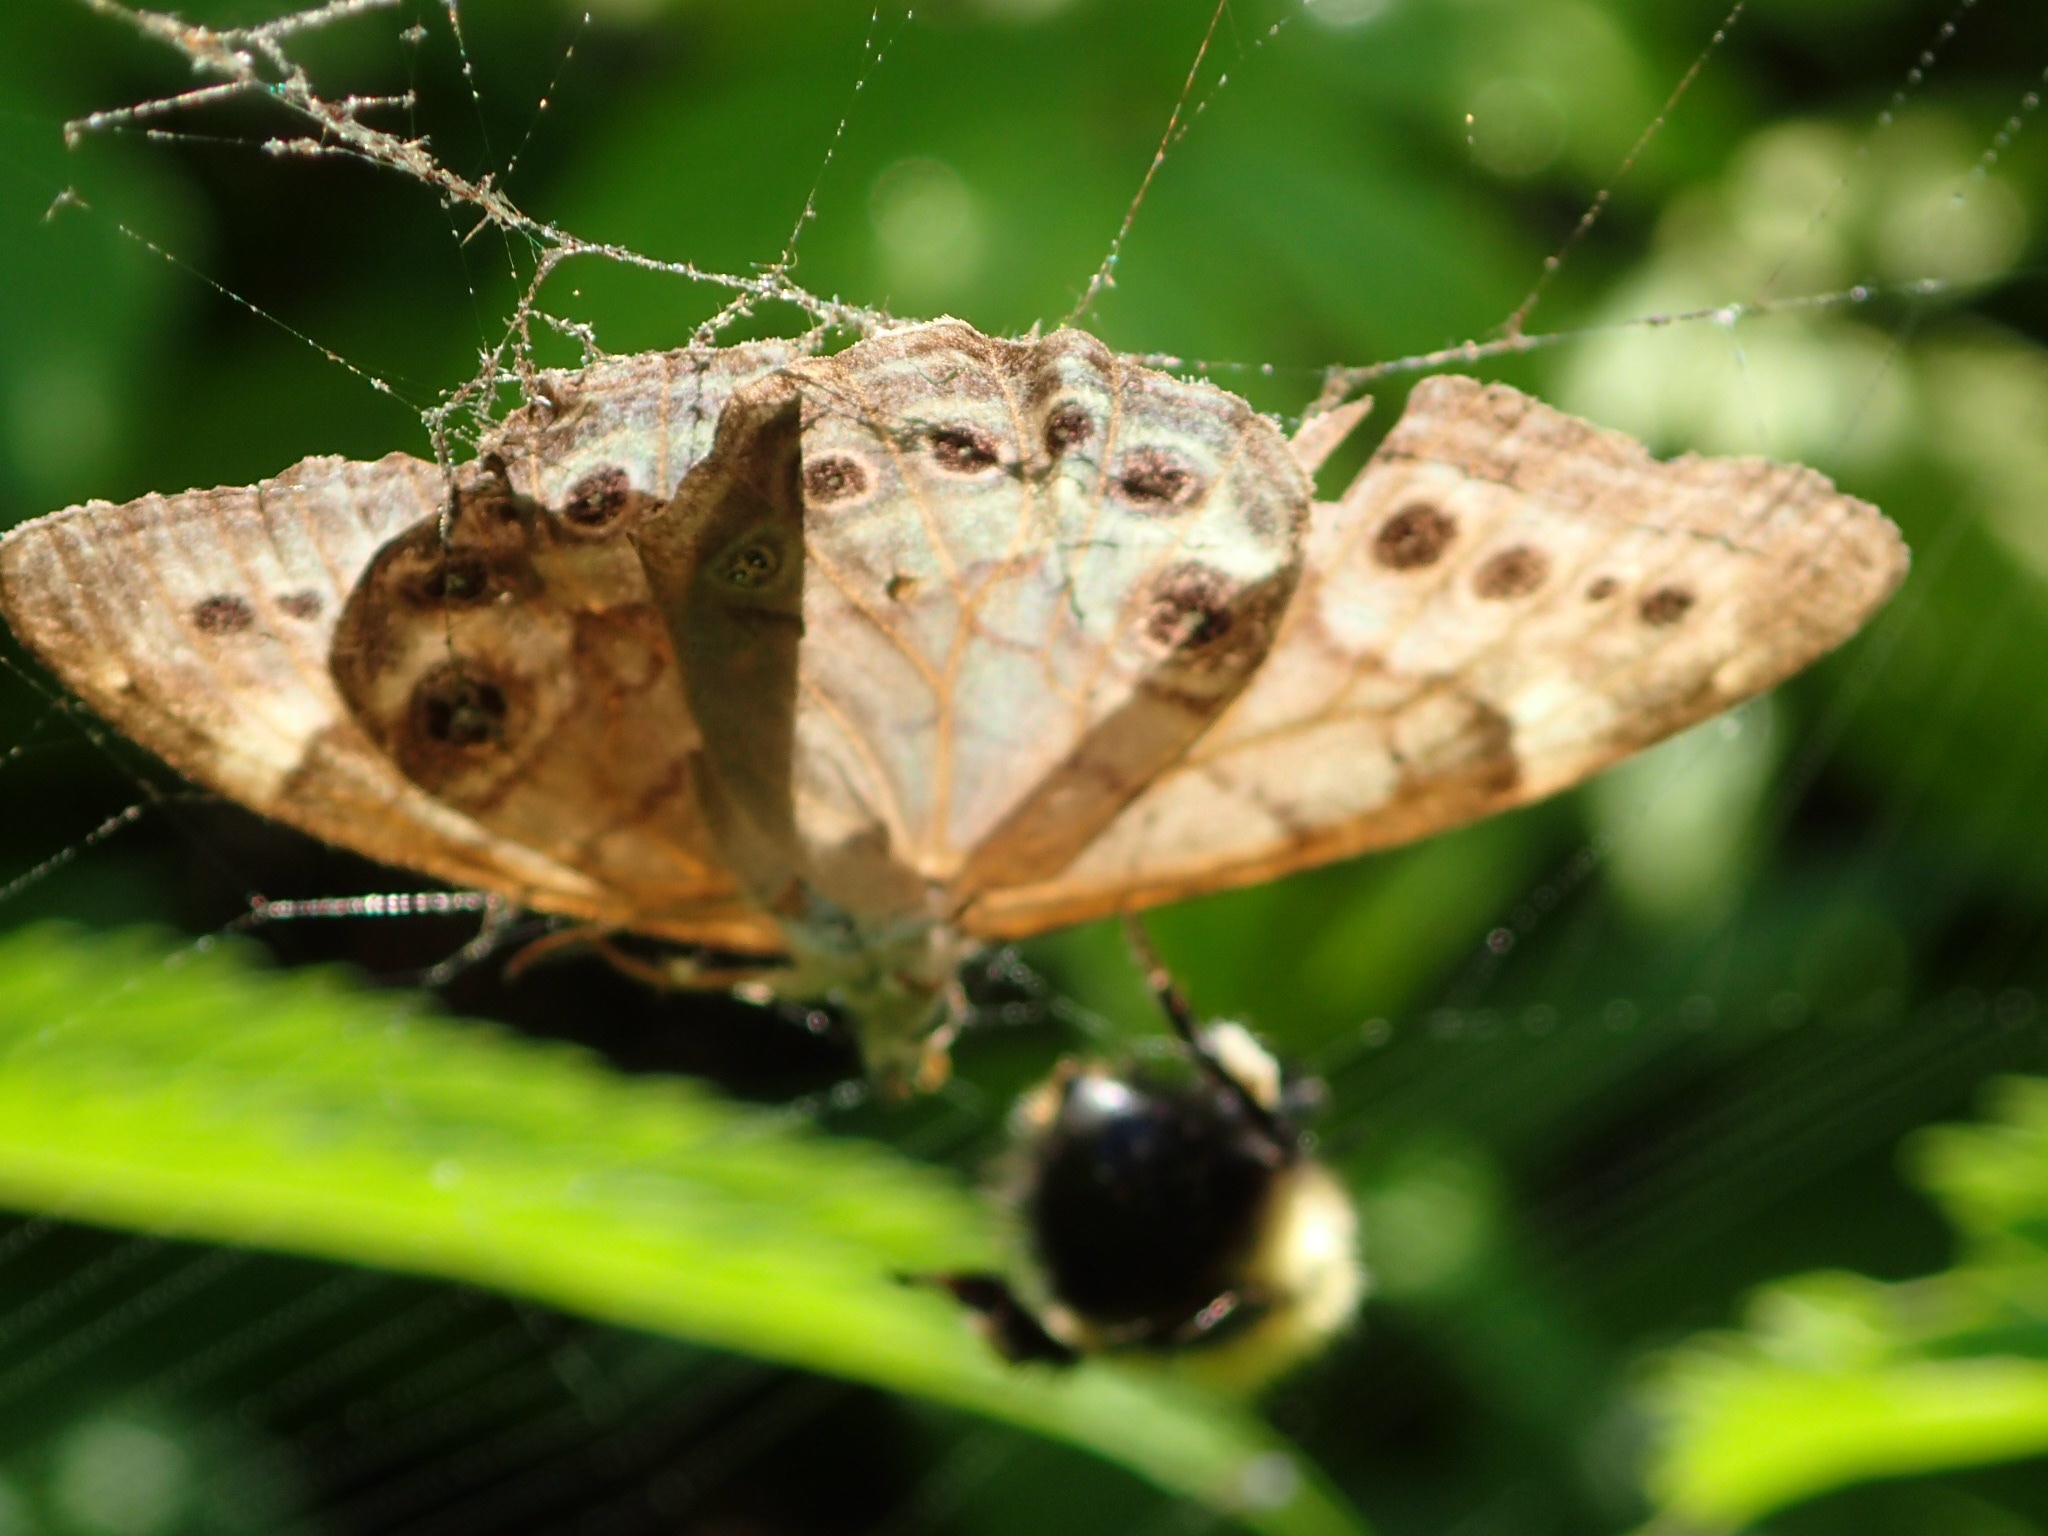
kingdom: Animalia
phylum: Arthropoda
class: Insecta
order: Lepidoptera
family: Nymphalidae
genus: Lethe
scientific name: Lethe anthedon
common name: Northern pearly-eye
